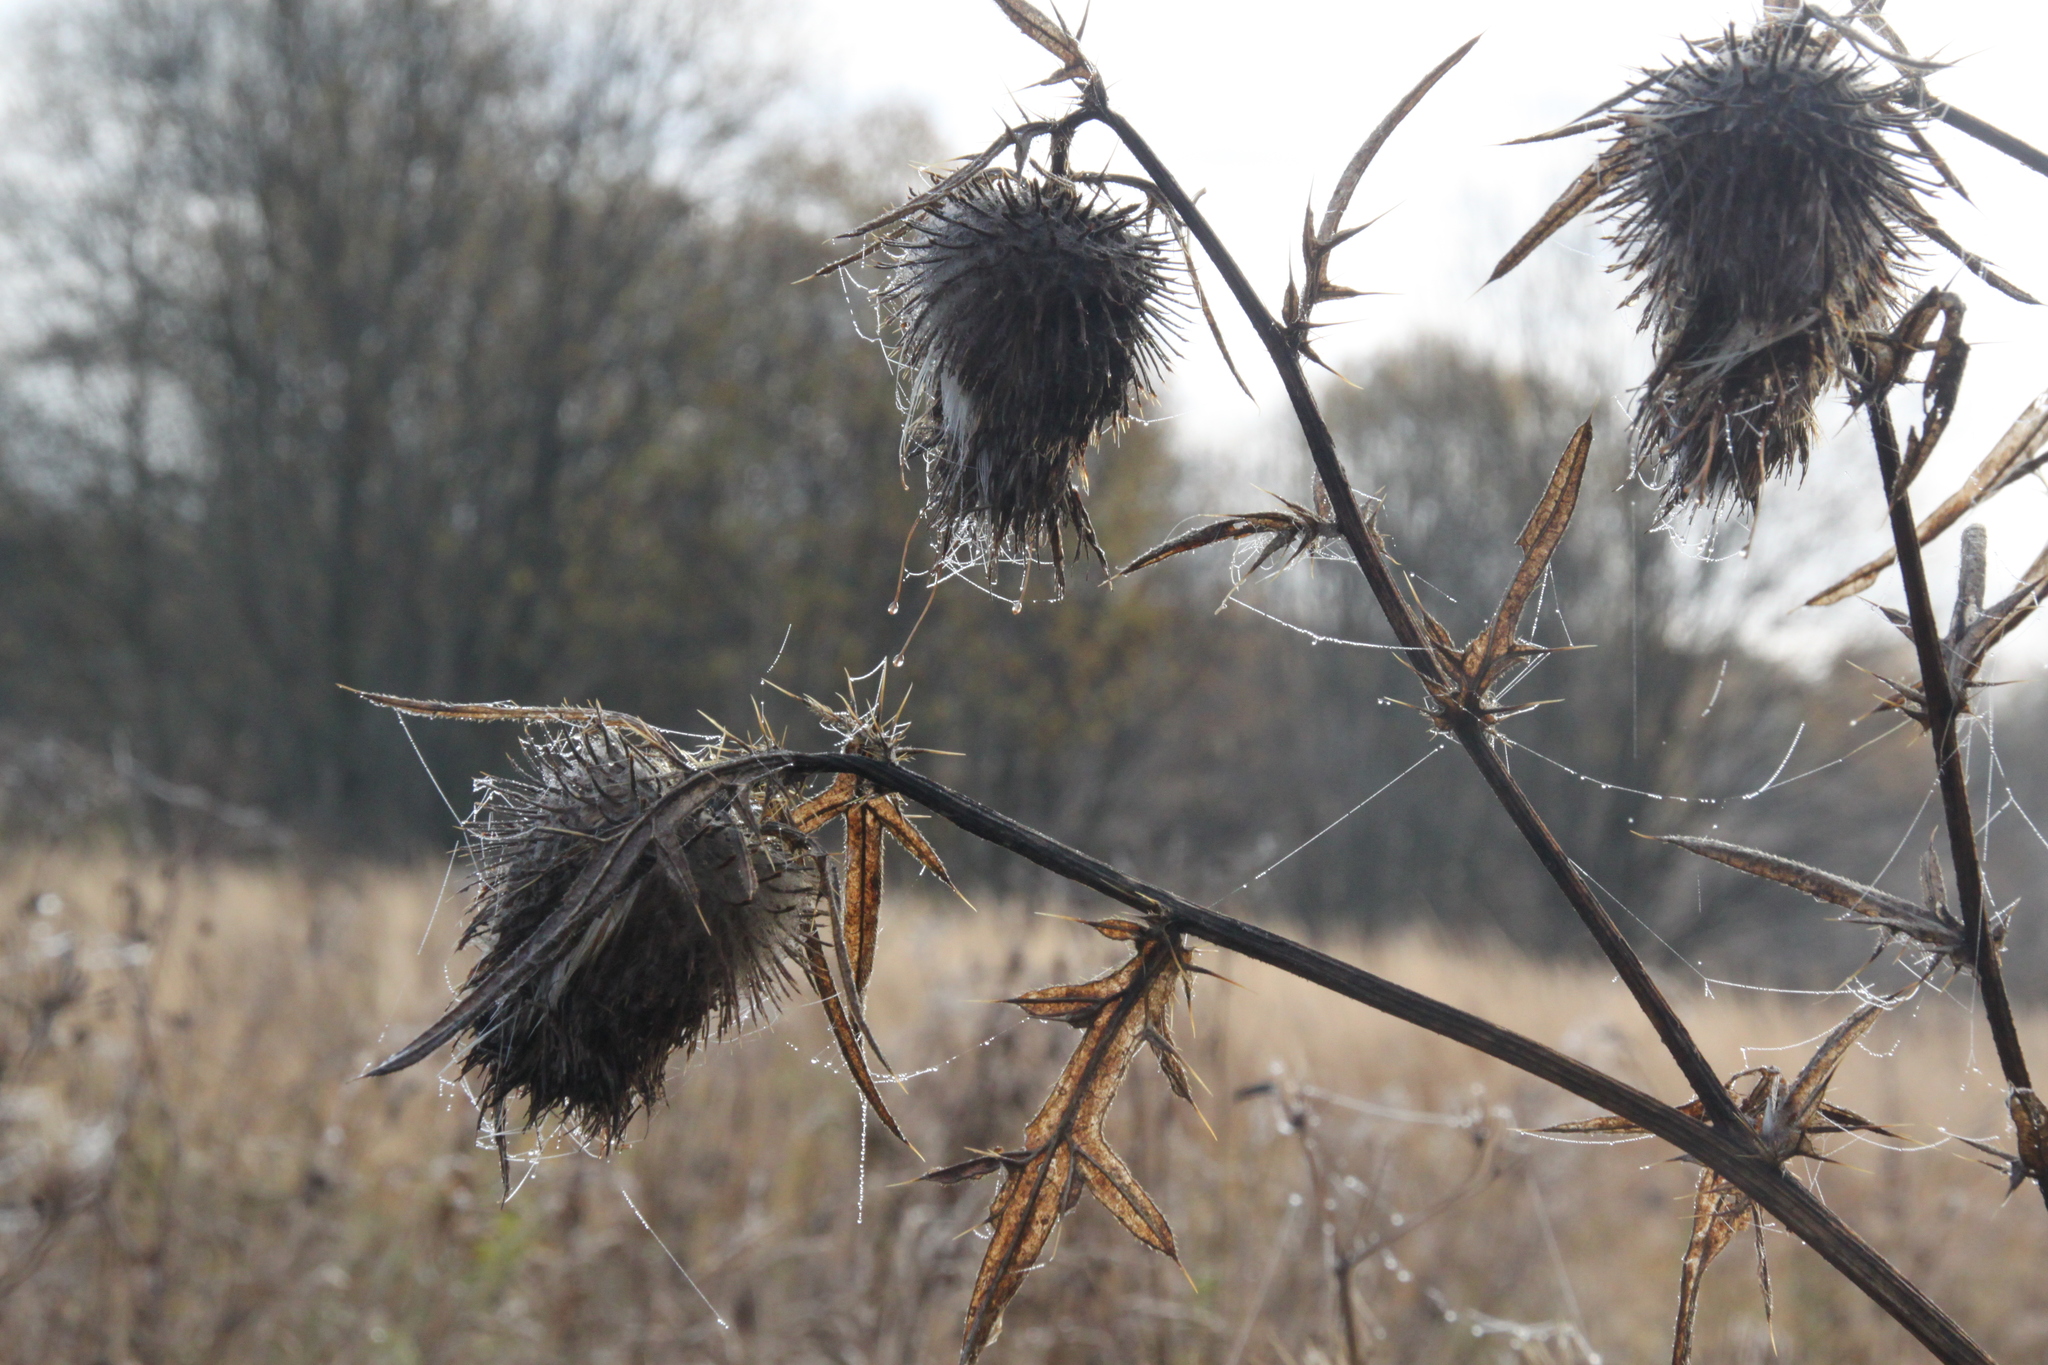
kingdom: Plantae
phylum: Tracheophyta
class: Magnoliopsida
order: Asterales
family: Asteraceae
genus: Cirsium
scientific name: Cirsium vulgare
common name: Bull thistle
